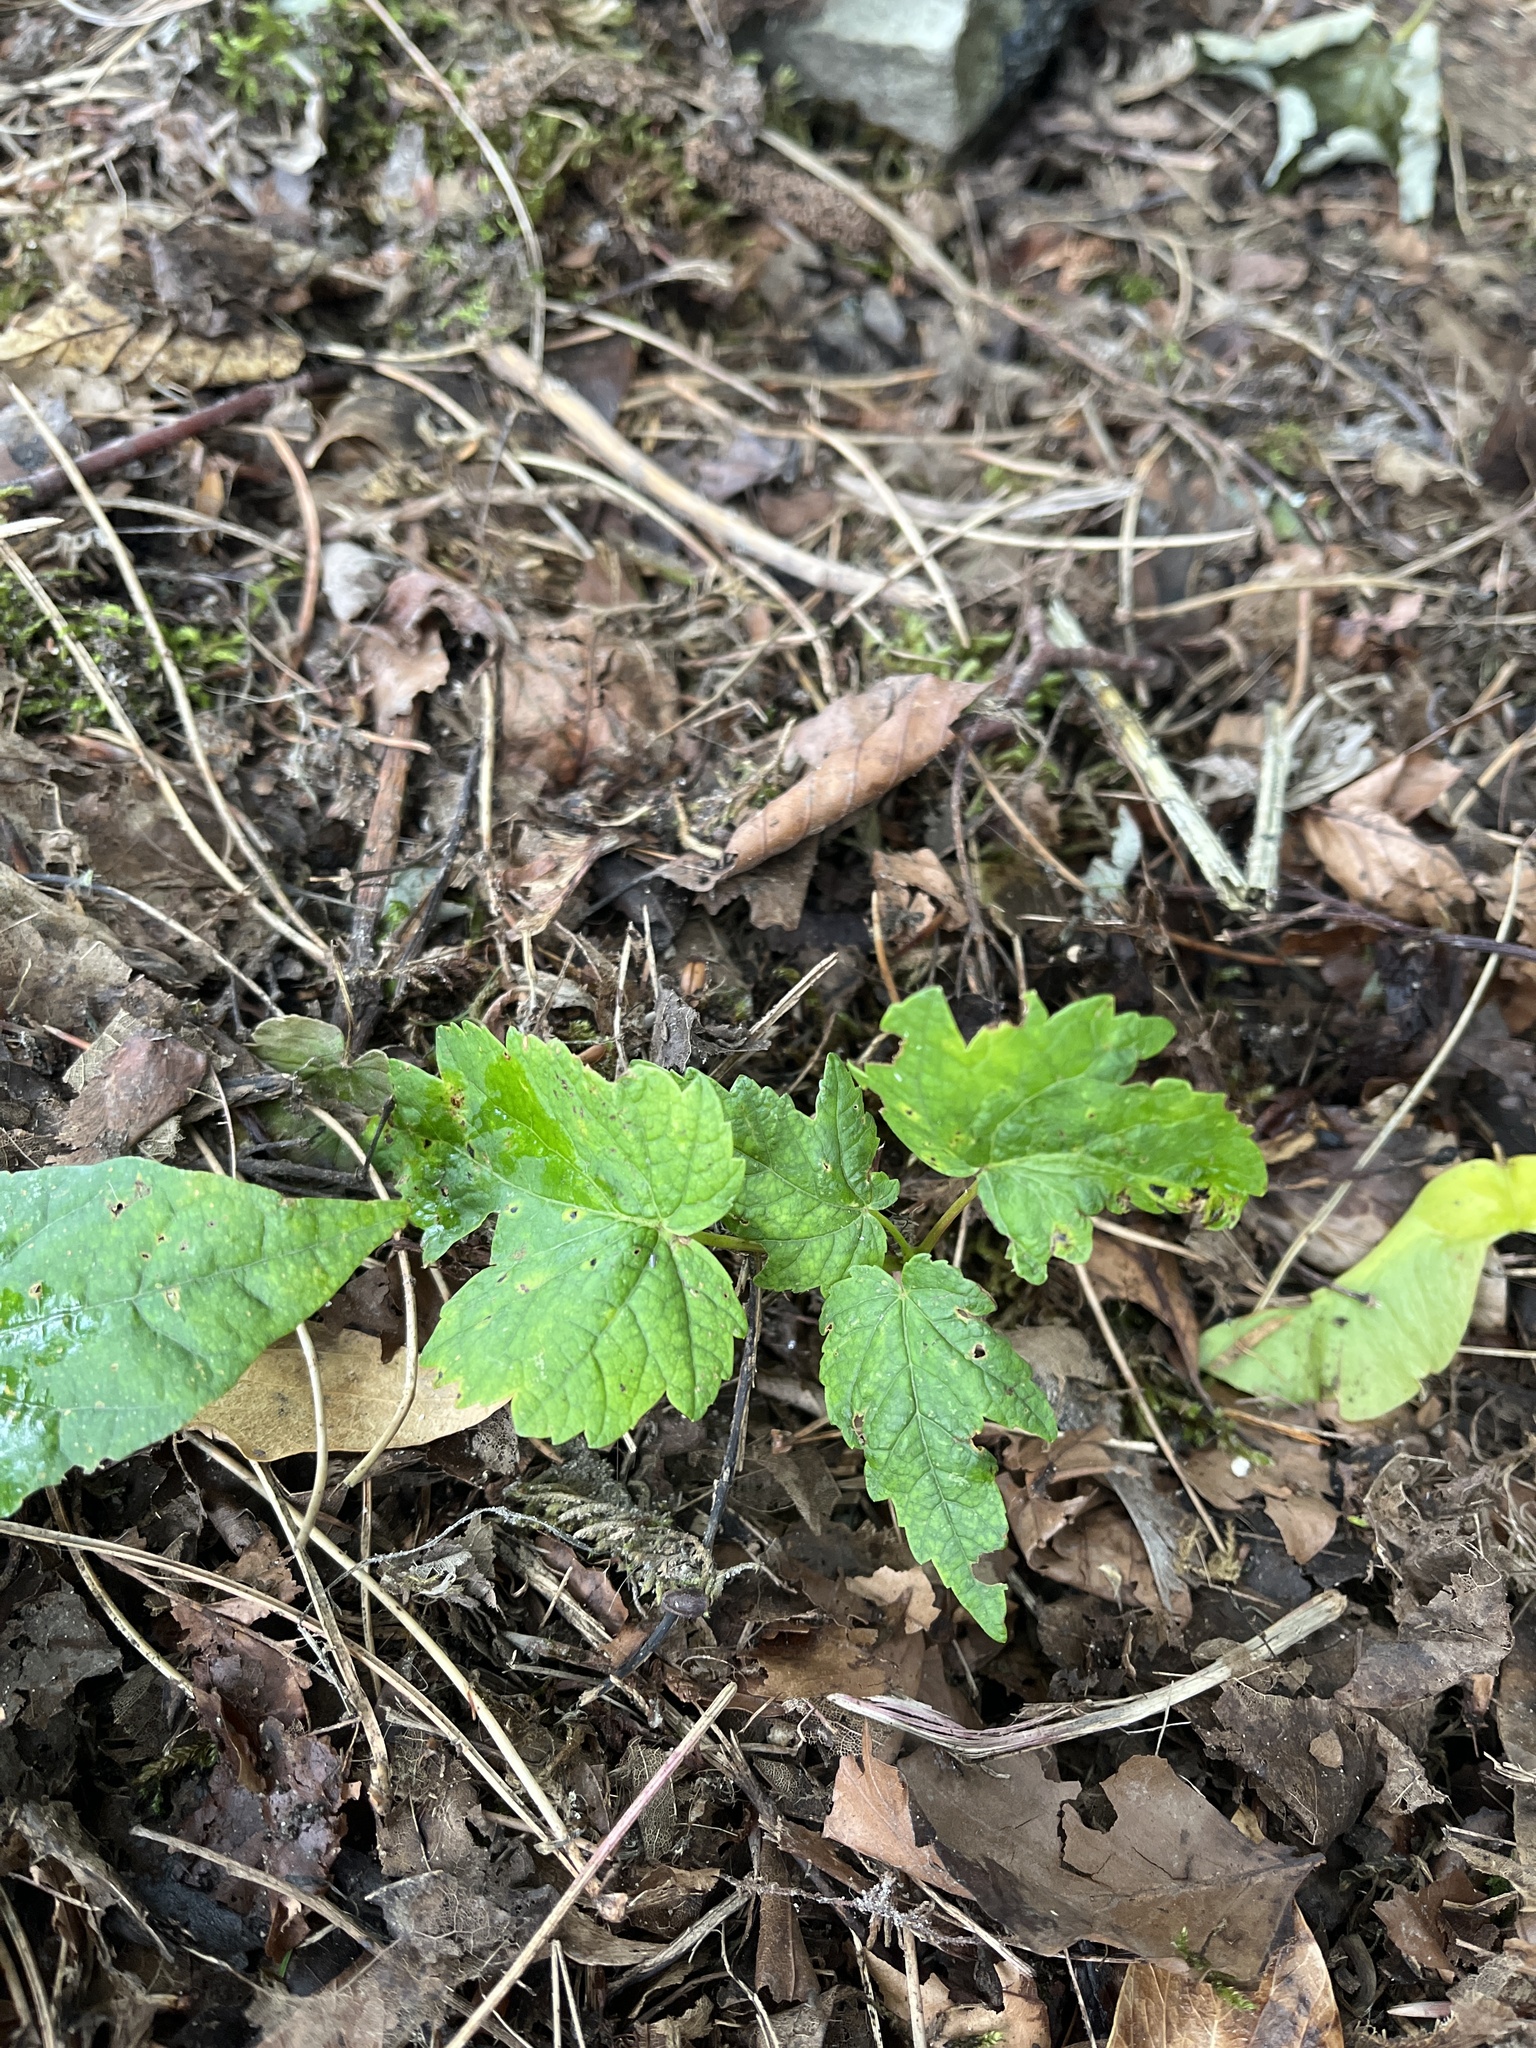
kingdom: Plantae
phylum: Tracheophyta
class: Magnoliopsida
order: Sapindales
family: Sapindaceae
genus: Acer
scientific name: Acer pseudoplatanus
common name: Sycamore
